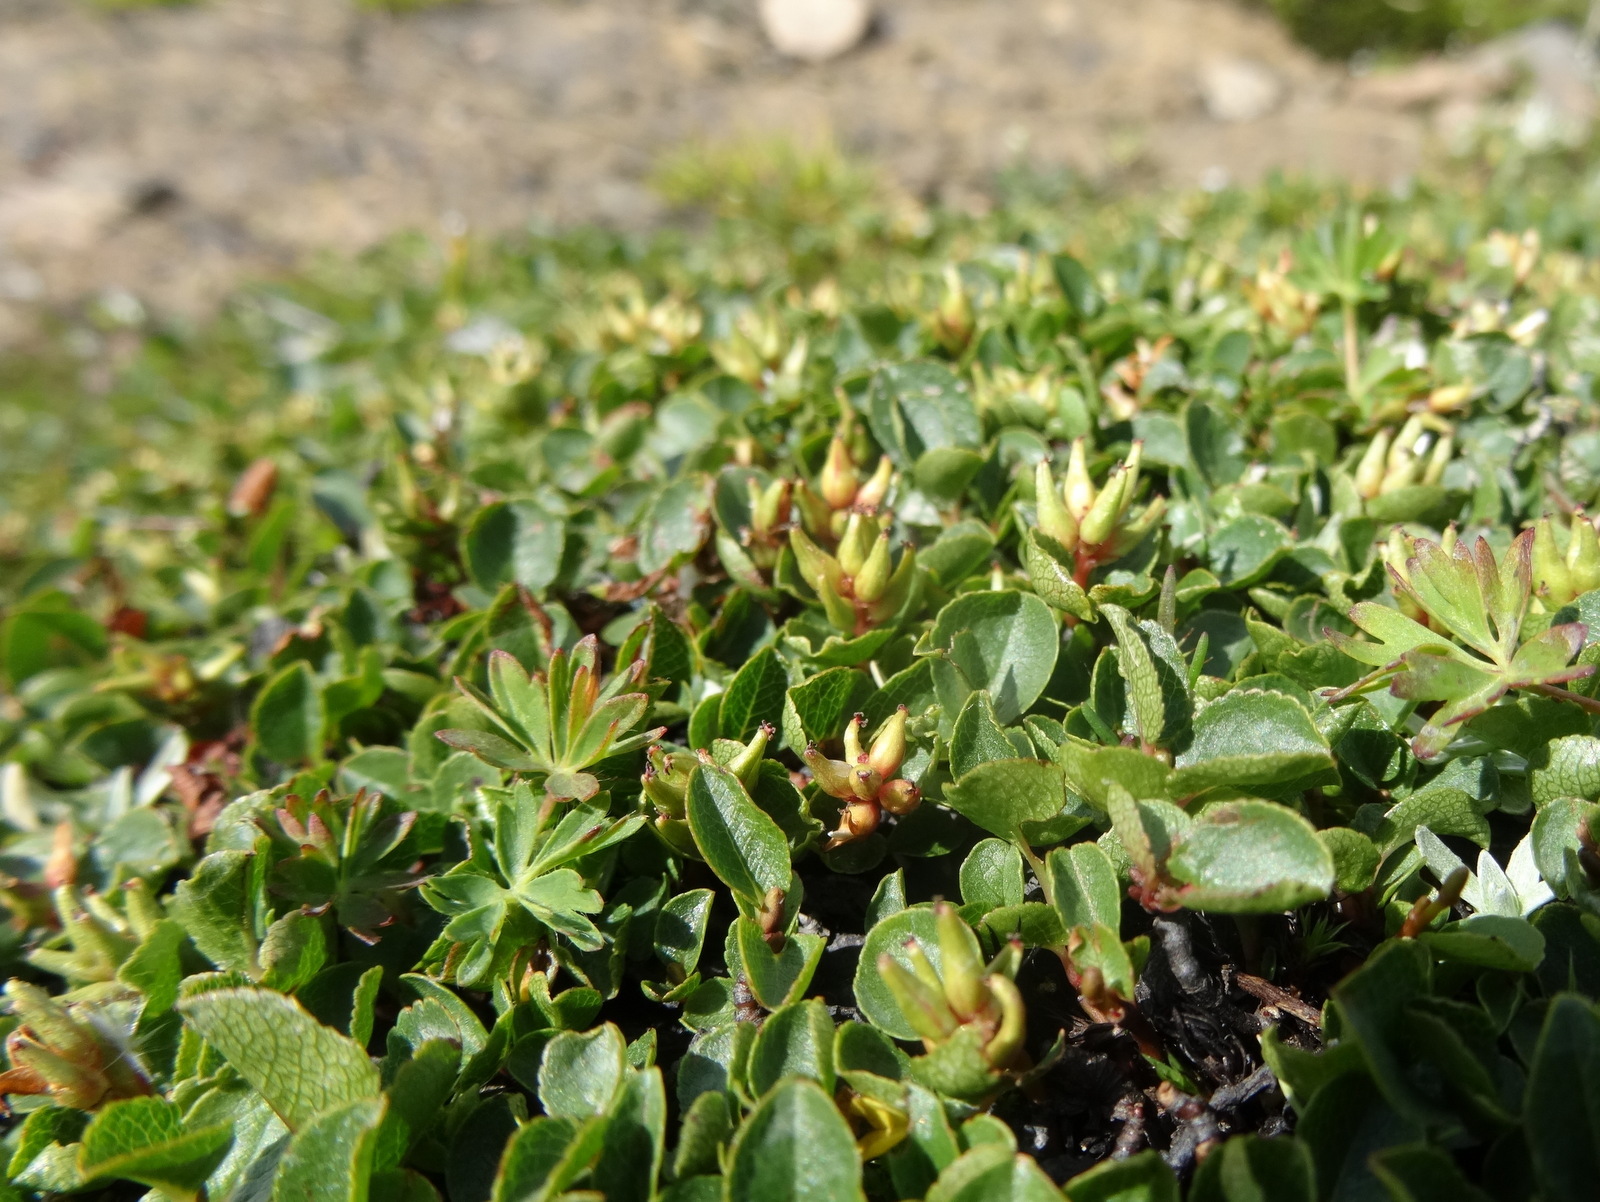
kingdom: Plantae
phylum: Tracheophyta
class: Magnoliopsida
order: Malpighiales
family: Salicaceae
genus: Salix
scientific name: Salix herbacea
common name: Dwarf willow
